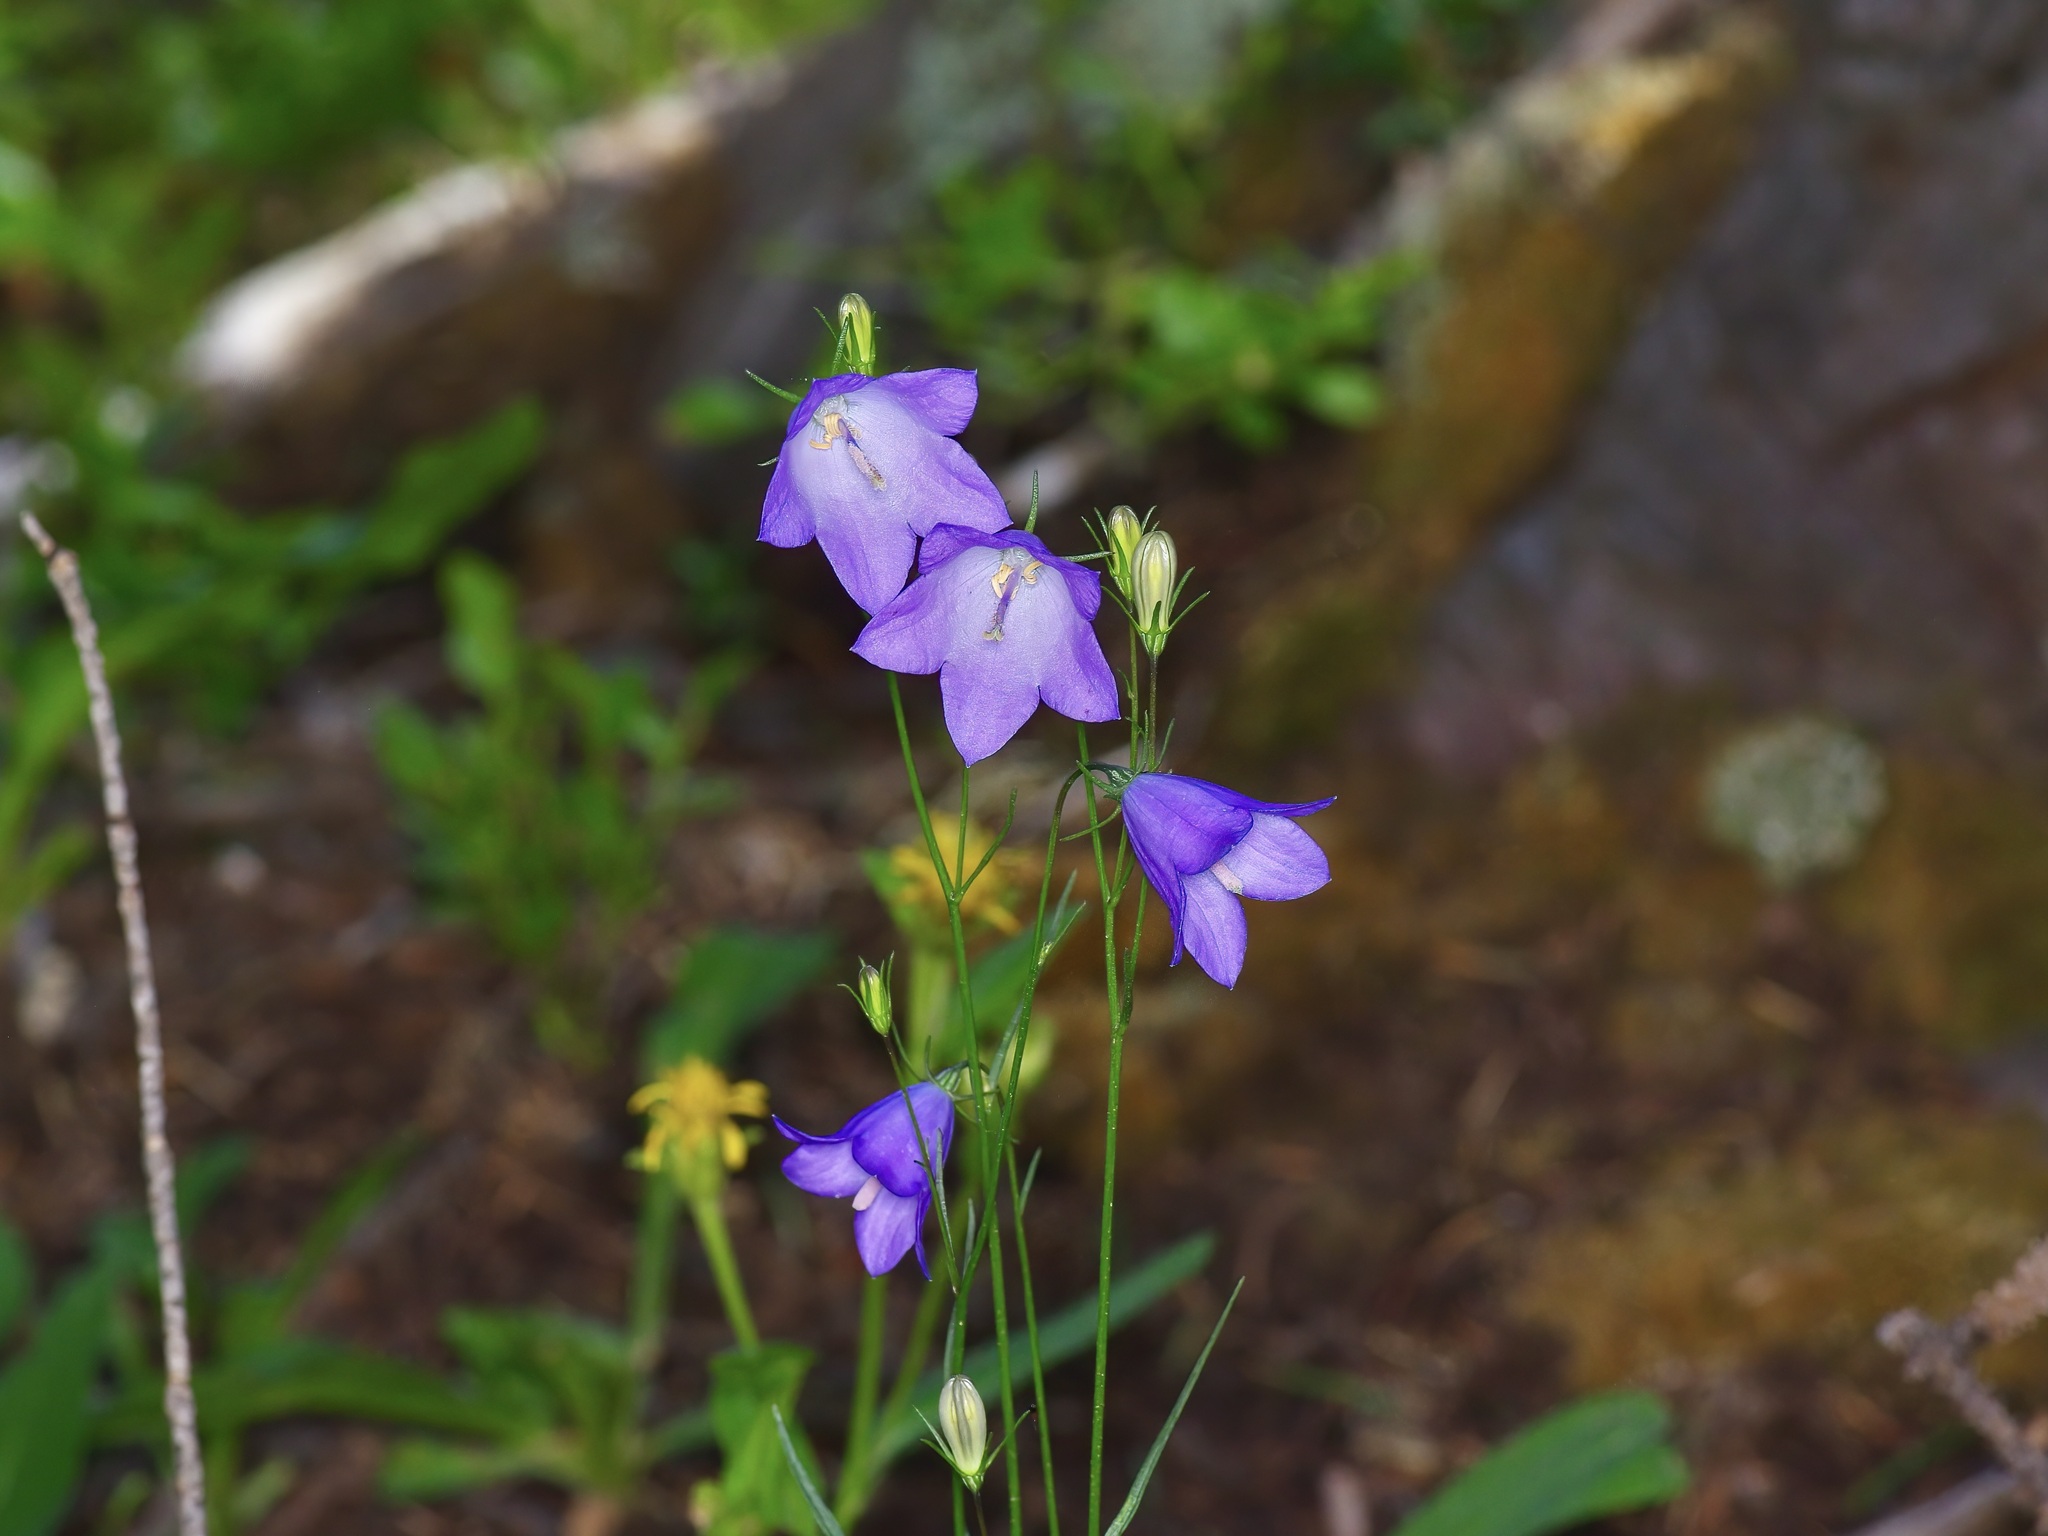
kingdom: Plantae
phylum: Tracheophyta
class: Magnoliopsida
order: Asterales
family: Campanulaceae
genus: Campanula
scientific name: Campanula petiolata
